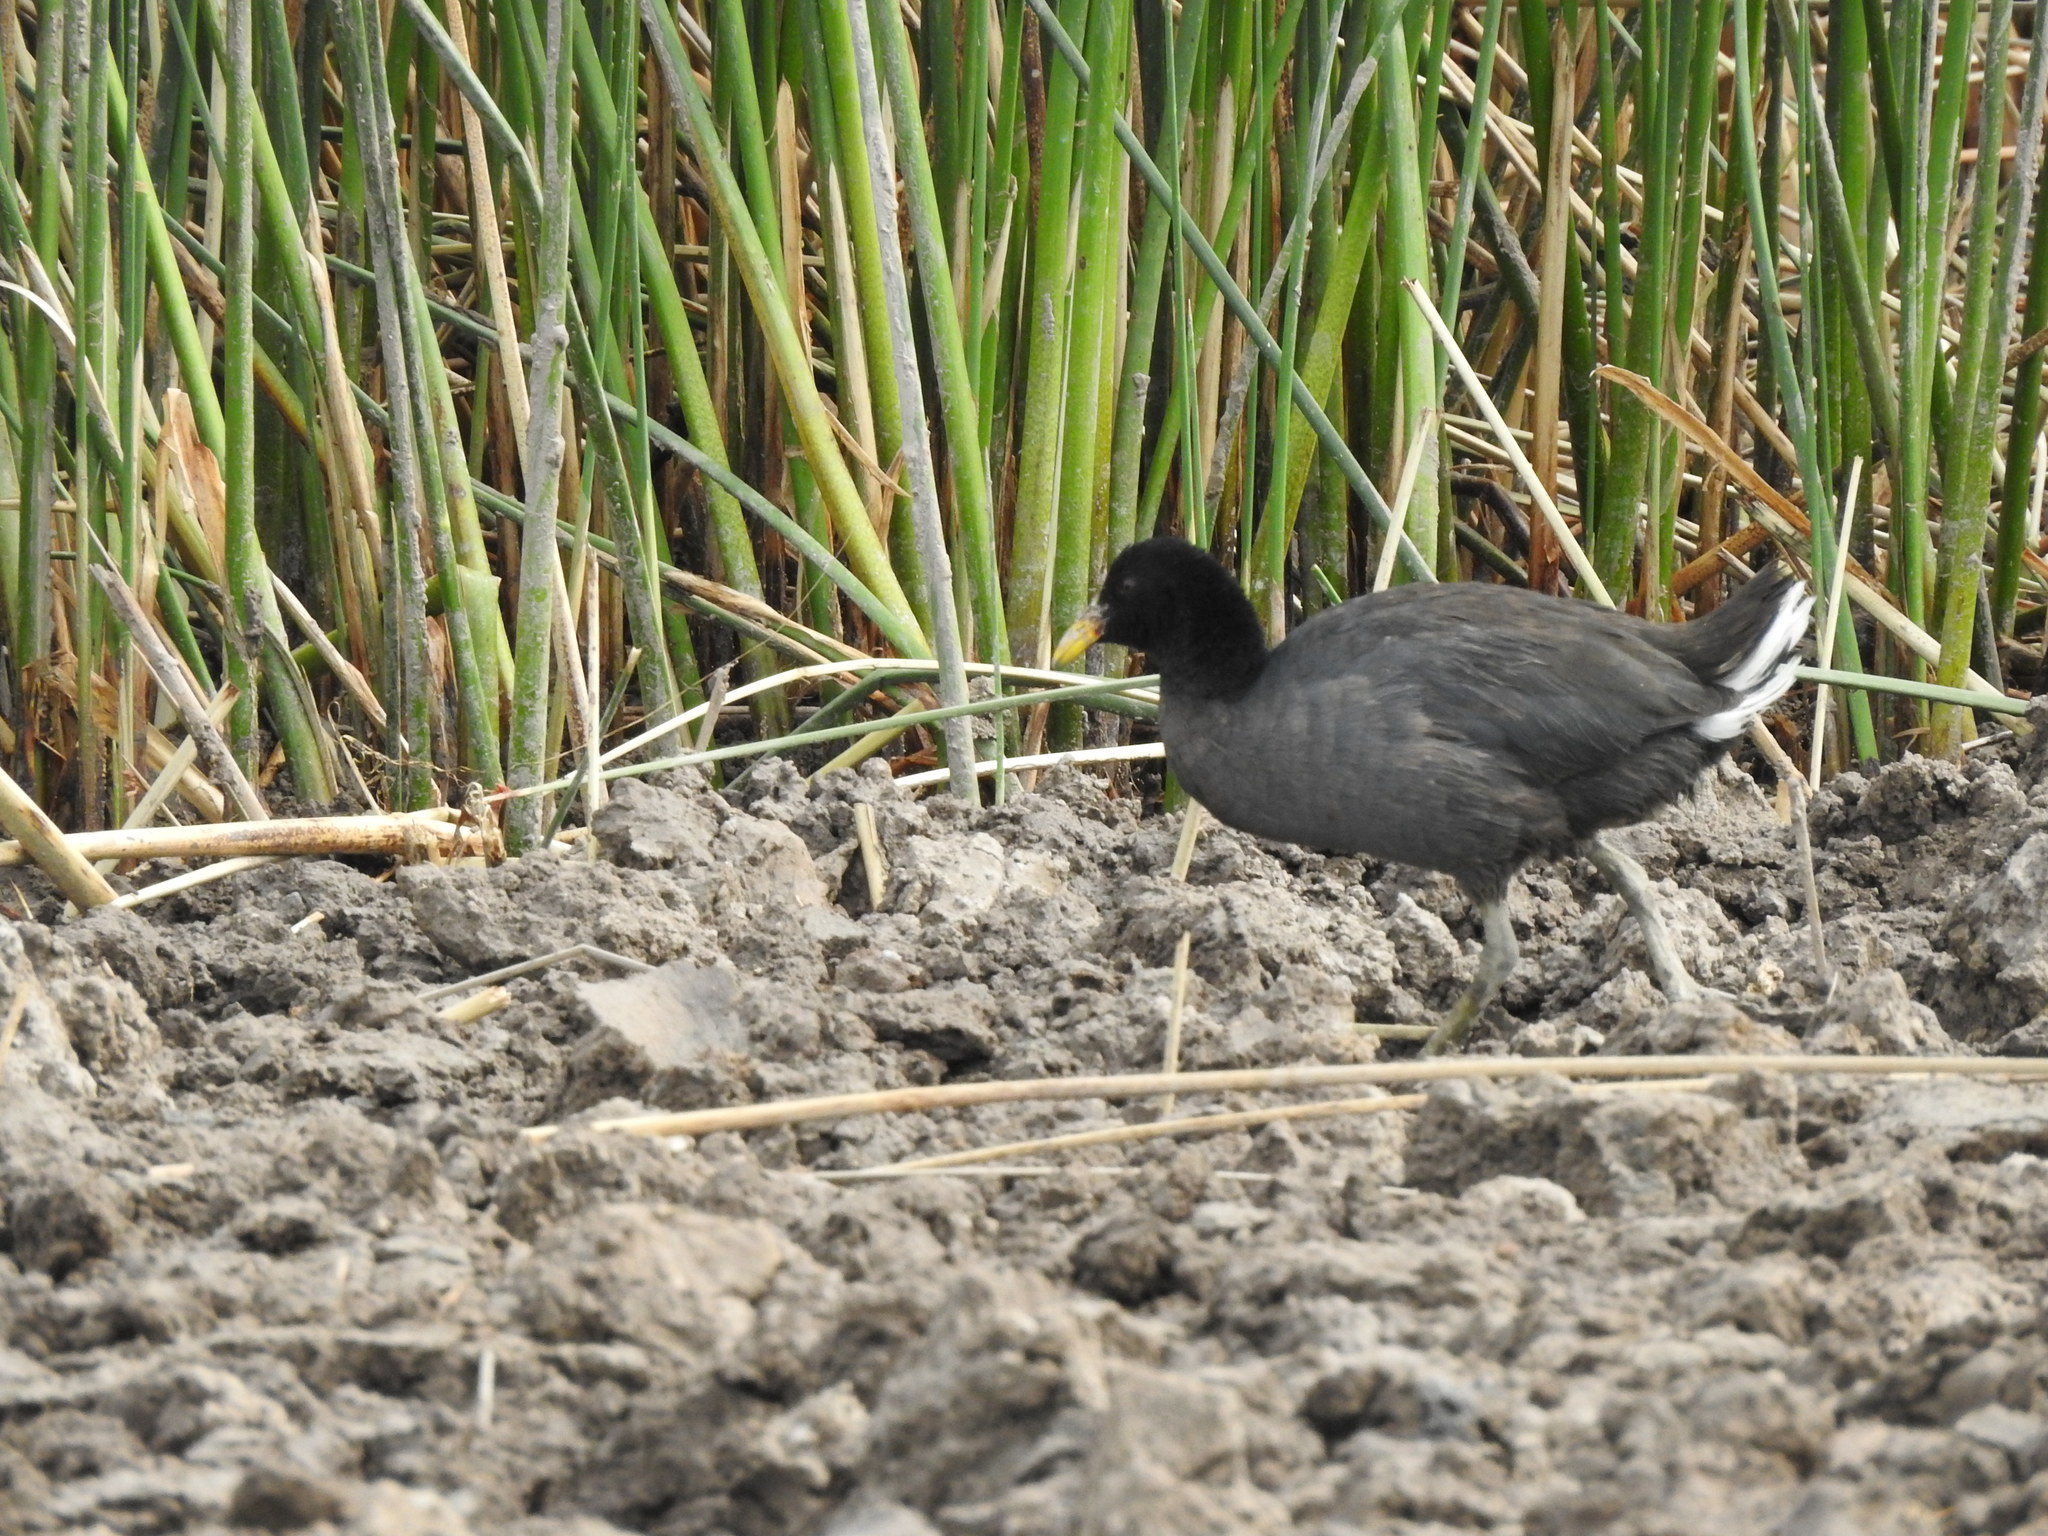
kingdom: Animalia
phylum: Chordata
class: Aves
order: Gruiformes
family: Rallidae
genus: Fulica
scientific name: Fulica rufifrons
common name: Red-fronted coot
